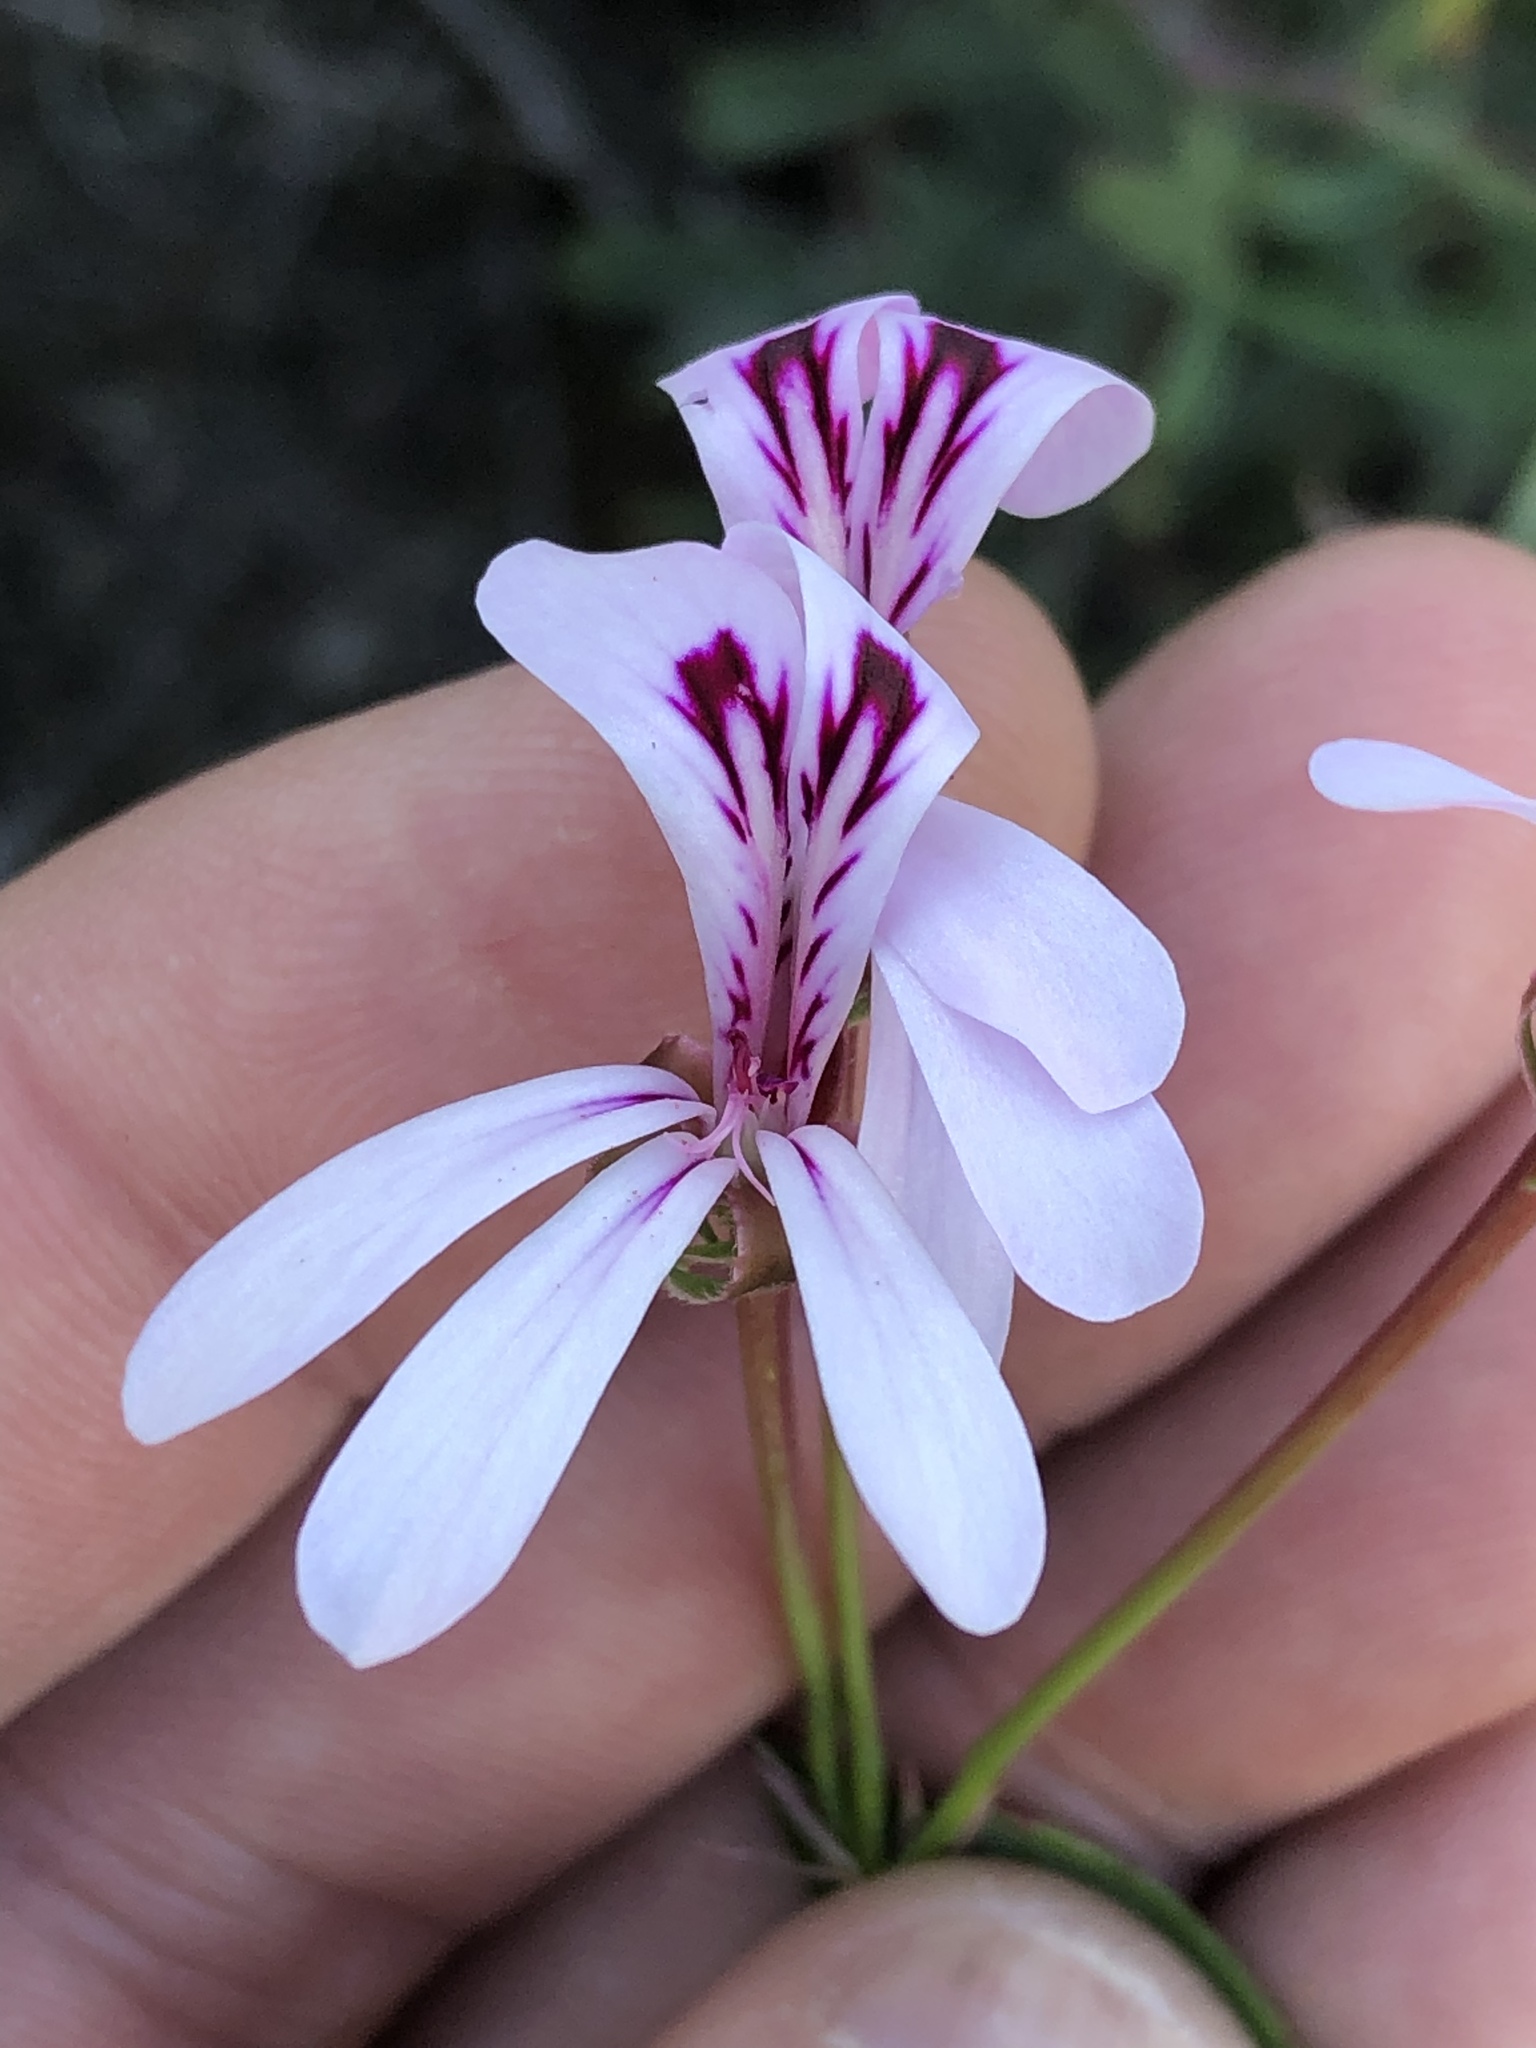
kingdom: Plantae
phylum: Tracheophyta
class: Magnoliopsida
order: Geraniales
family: Geraniaceae
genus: Pelargonium
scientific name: Pelargonium laevigatum
